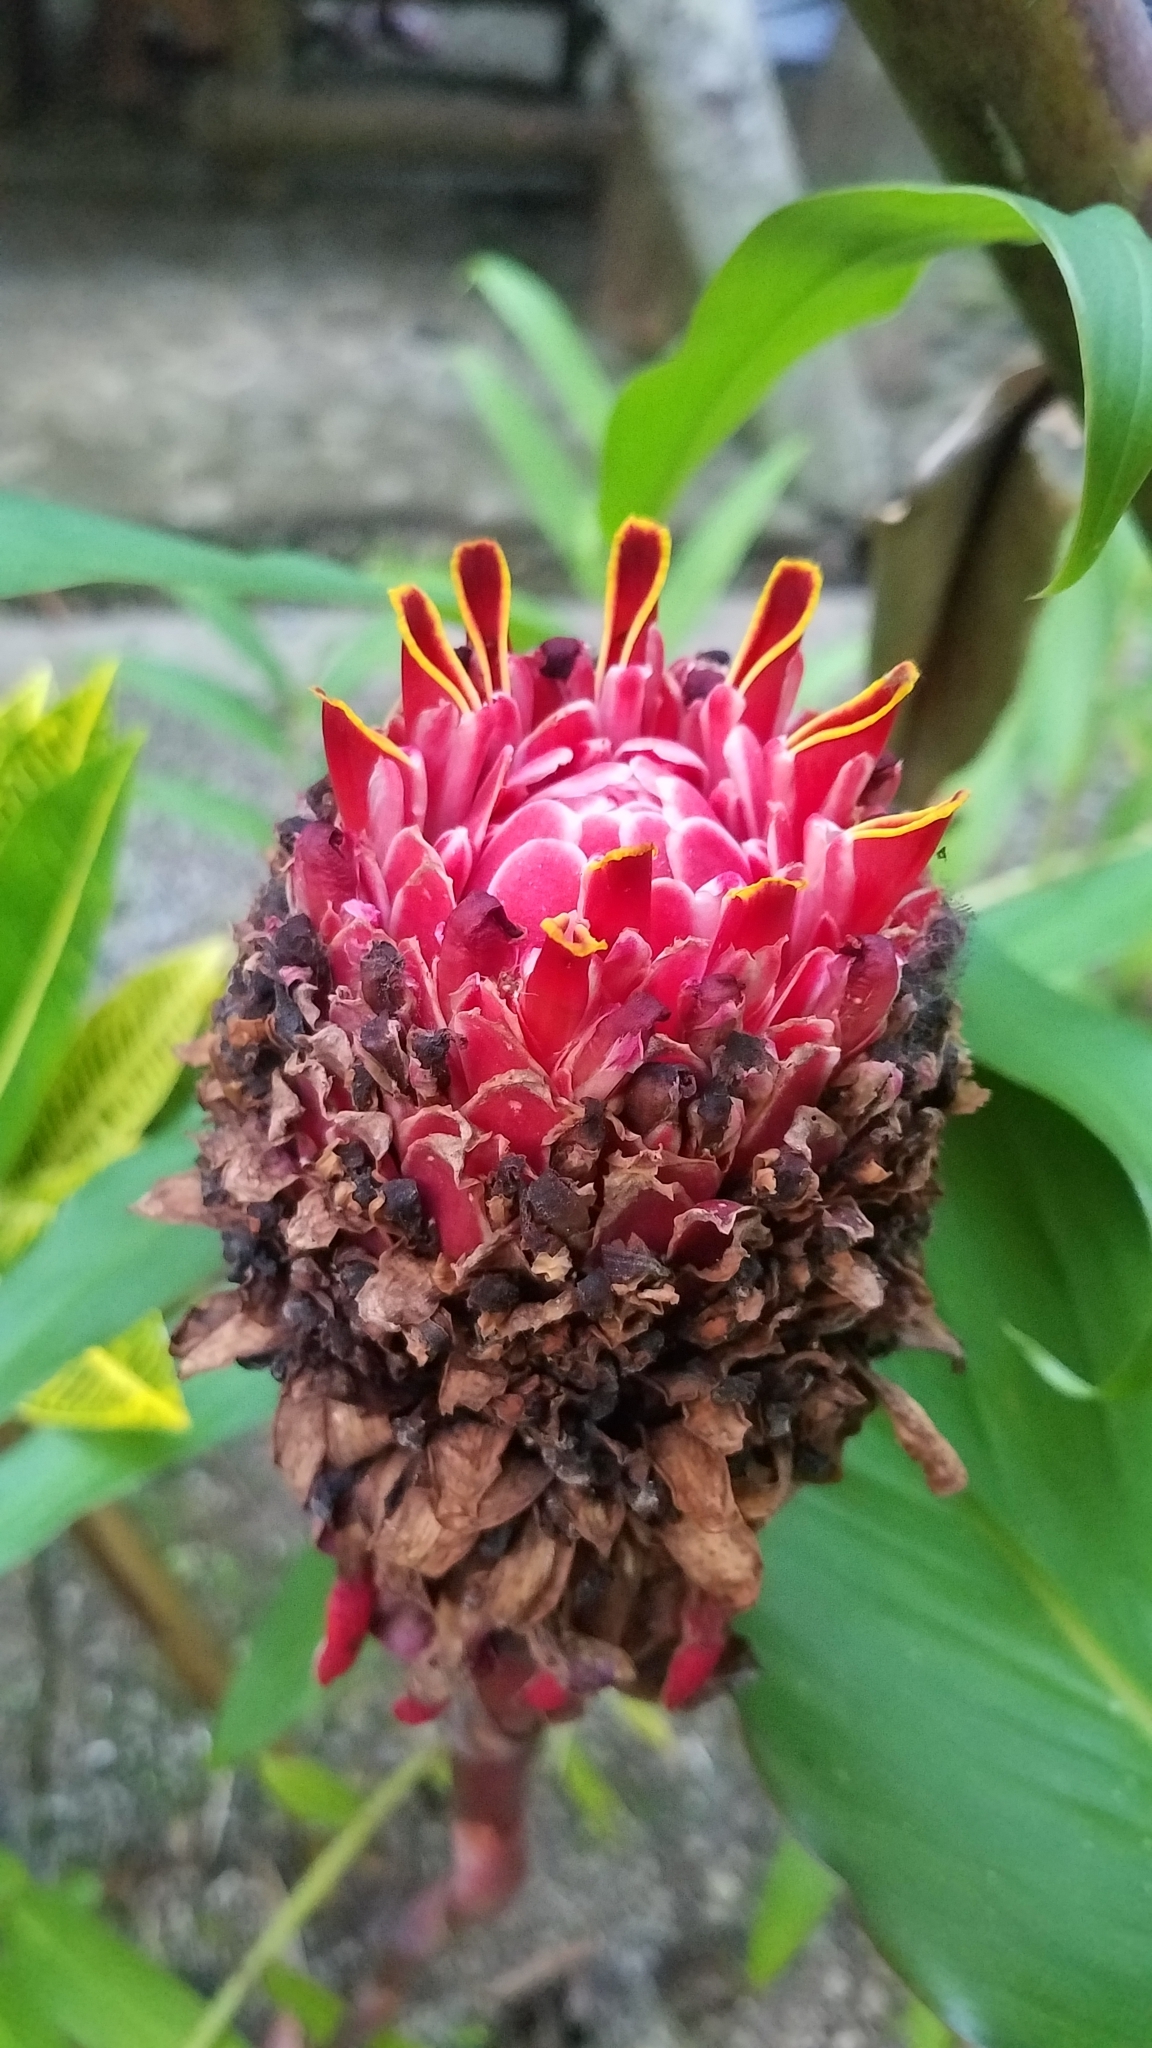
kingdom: Plantae
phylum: Tracheophyta
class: Liliopsida
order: Zingiberales
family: Zingiberaceae
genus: Etlingera
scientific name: Etlingera elatior
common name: Philippine waxflower
